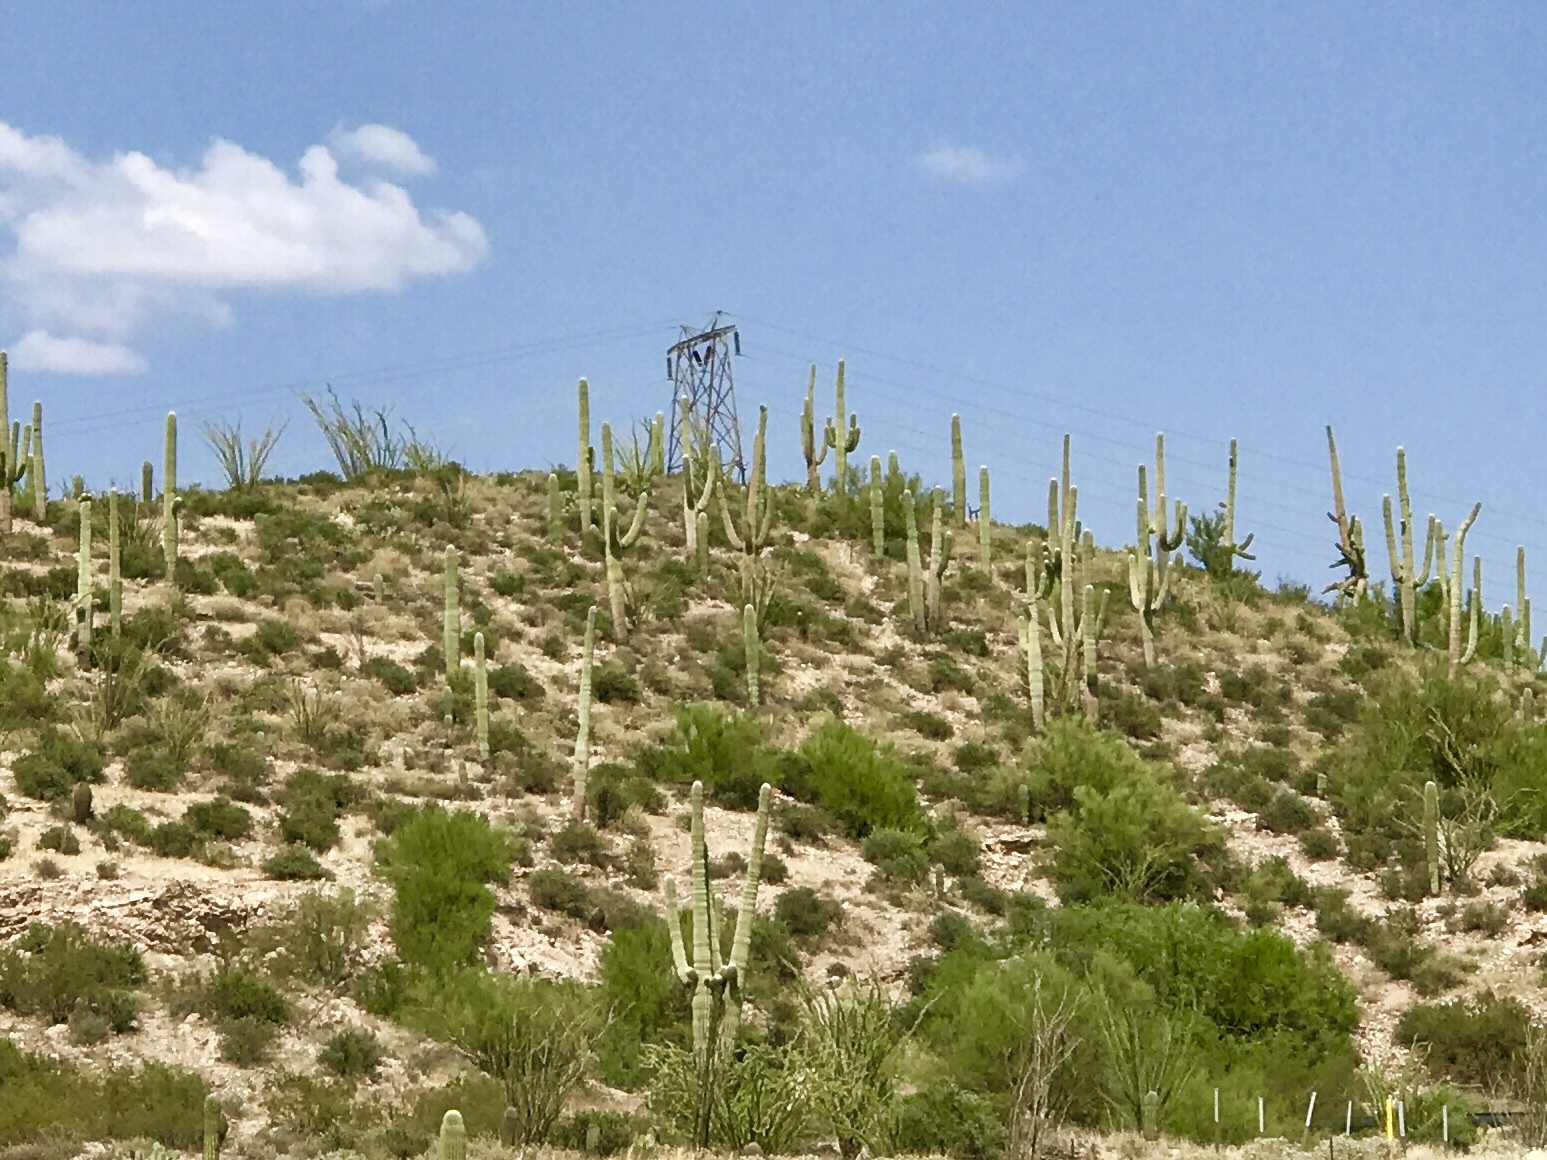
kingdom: Plantae
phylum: Tracheophyta
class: Magnoliopsida
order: Caryophyllales
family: Cactaceae
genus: Carnegiea
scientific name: Carnegiea gigantea
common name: Saguaro
